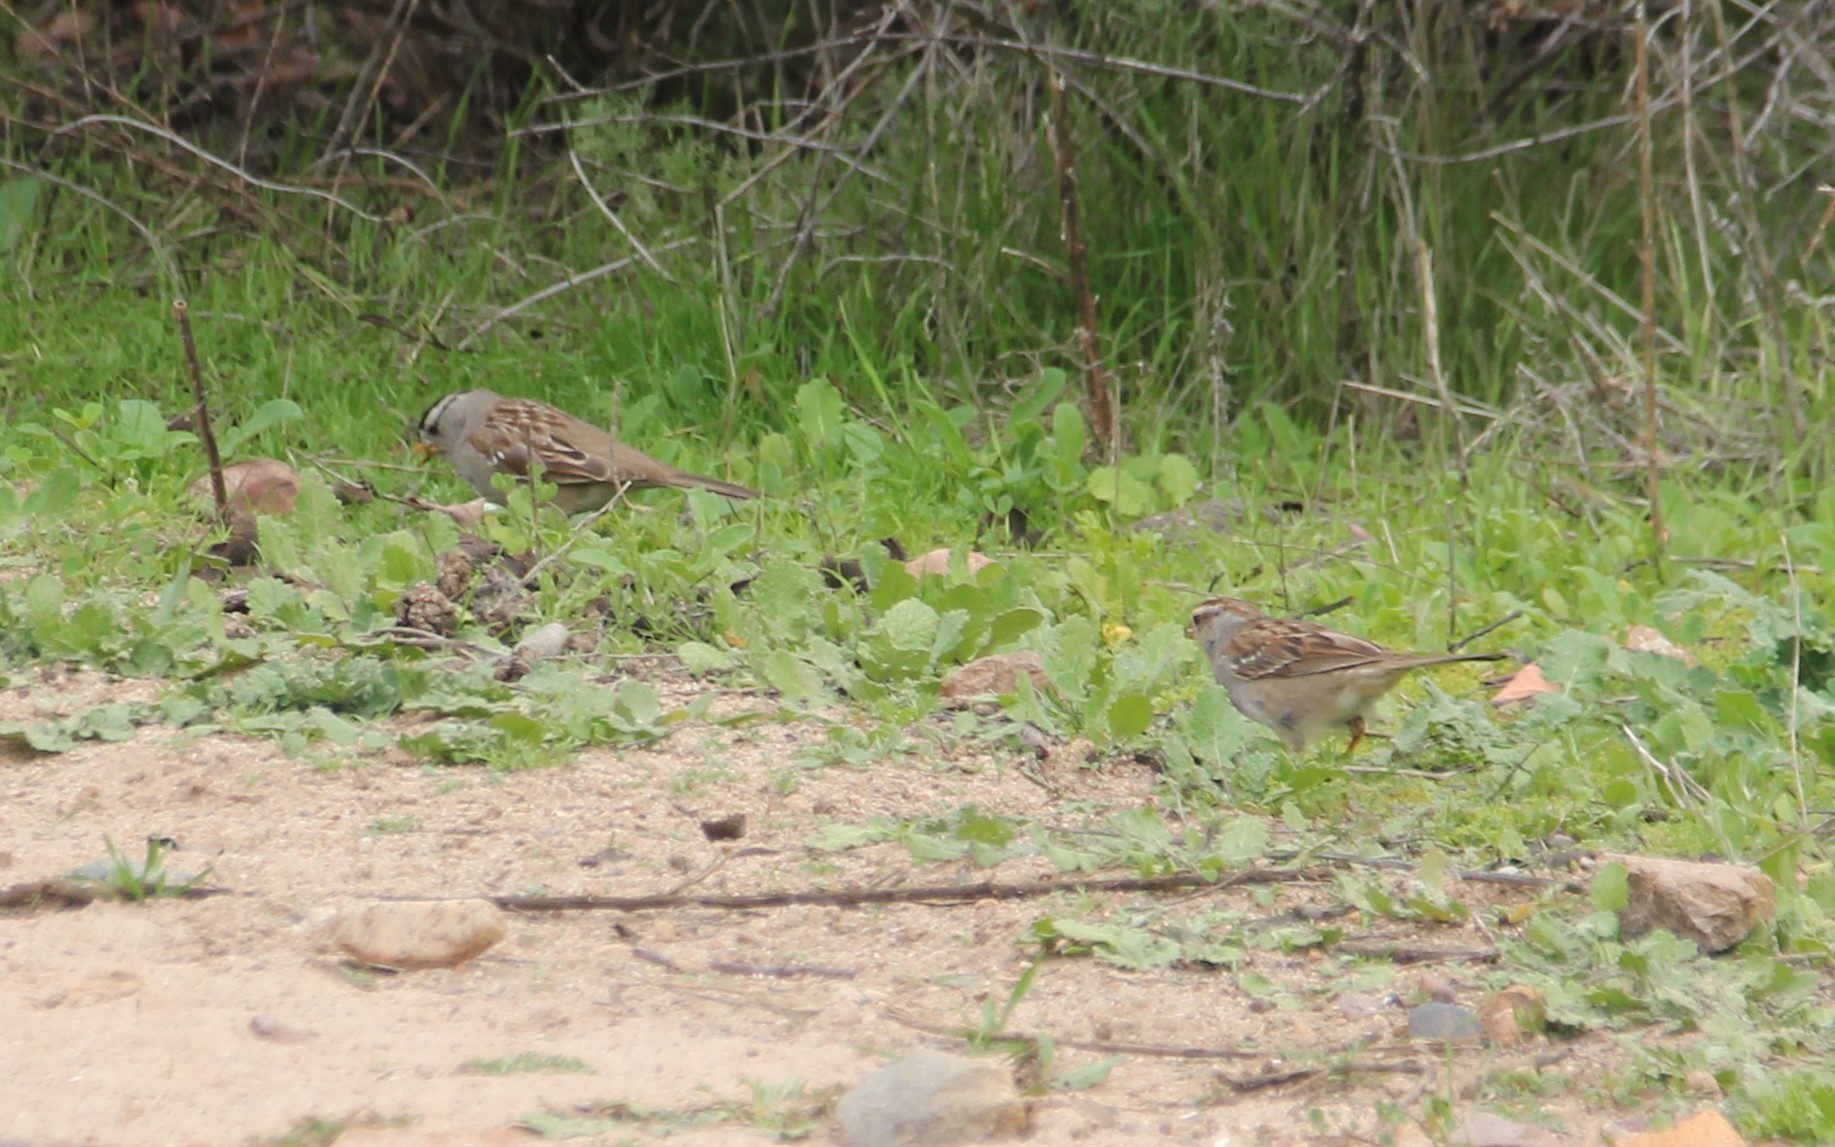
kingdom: Animalia
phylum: Chordata
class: Aves
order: Passeriformes
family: Passerellidae
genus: Zonotrichia
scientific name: Zonotrichia leucophrys
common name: White-crowned sparrow
